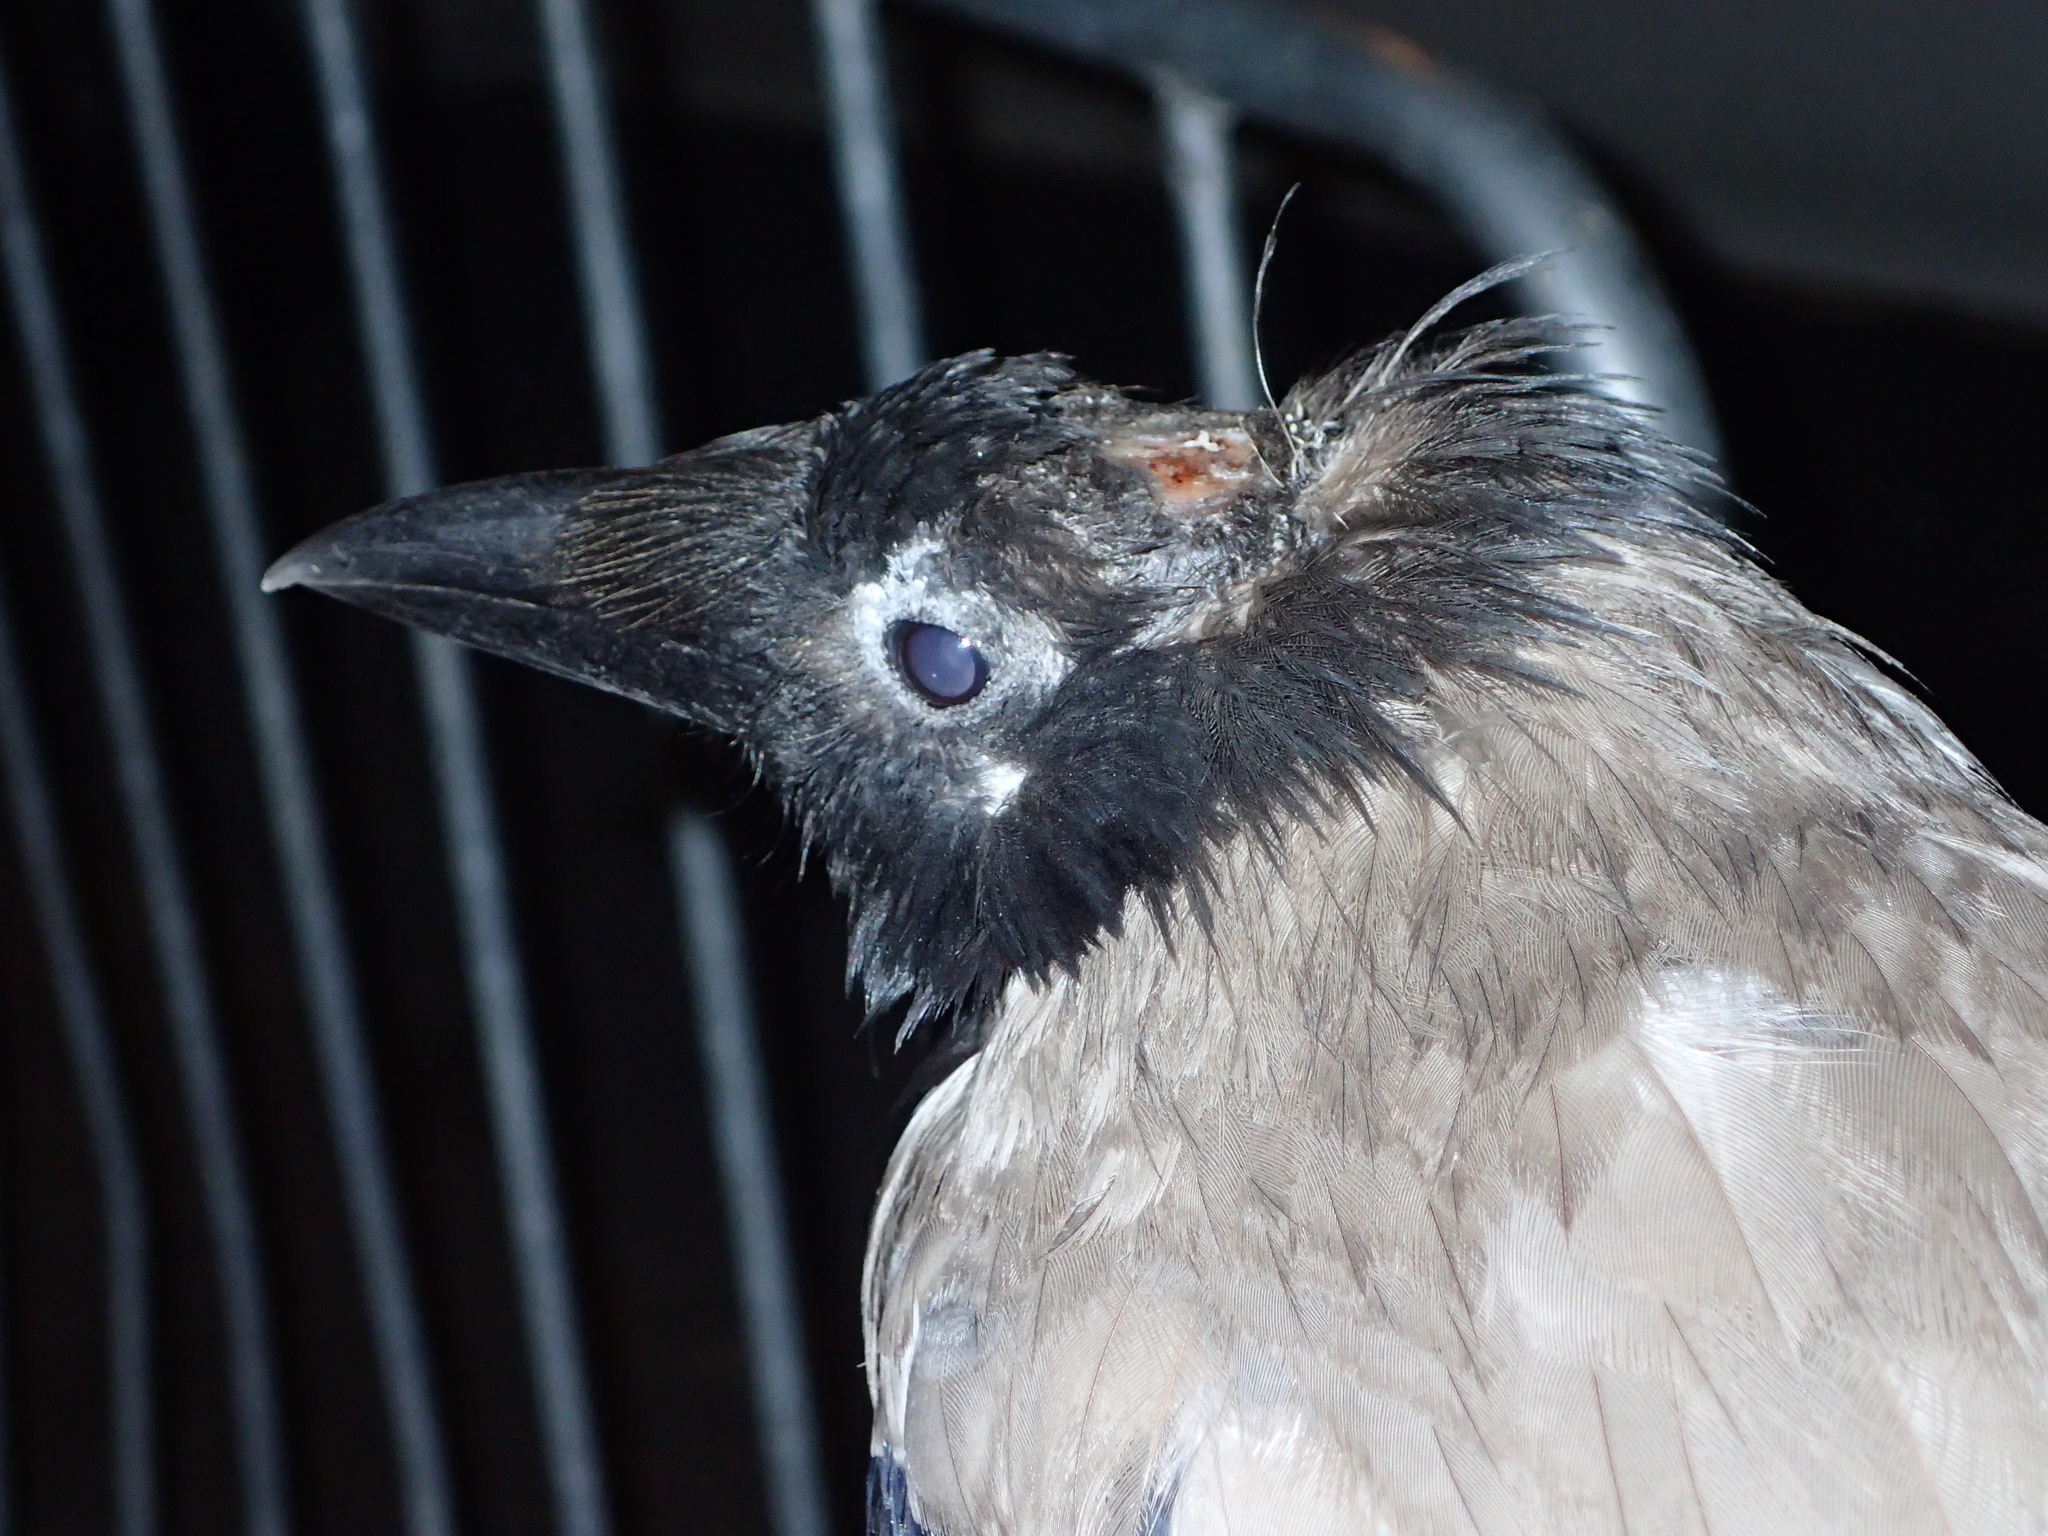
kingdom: Animalia
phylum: Chordata
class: Aves
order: Passeriformes
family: Corvidae
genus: Corvus
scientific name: Corvus cornix
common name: Hooded crow
